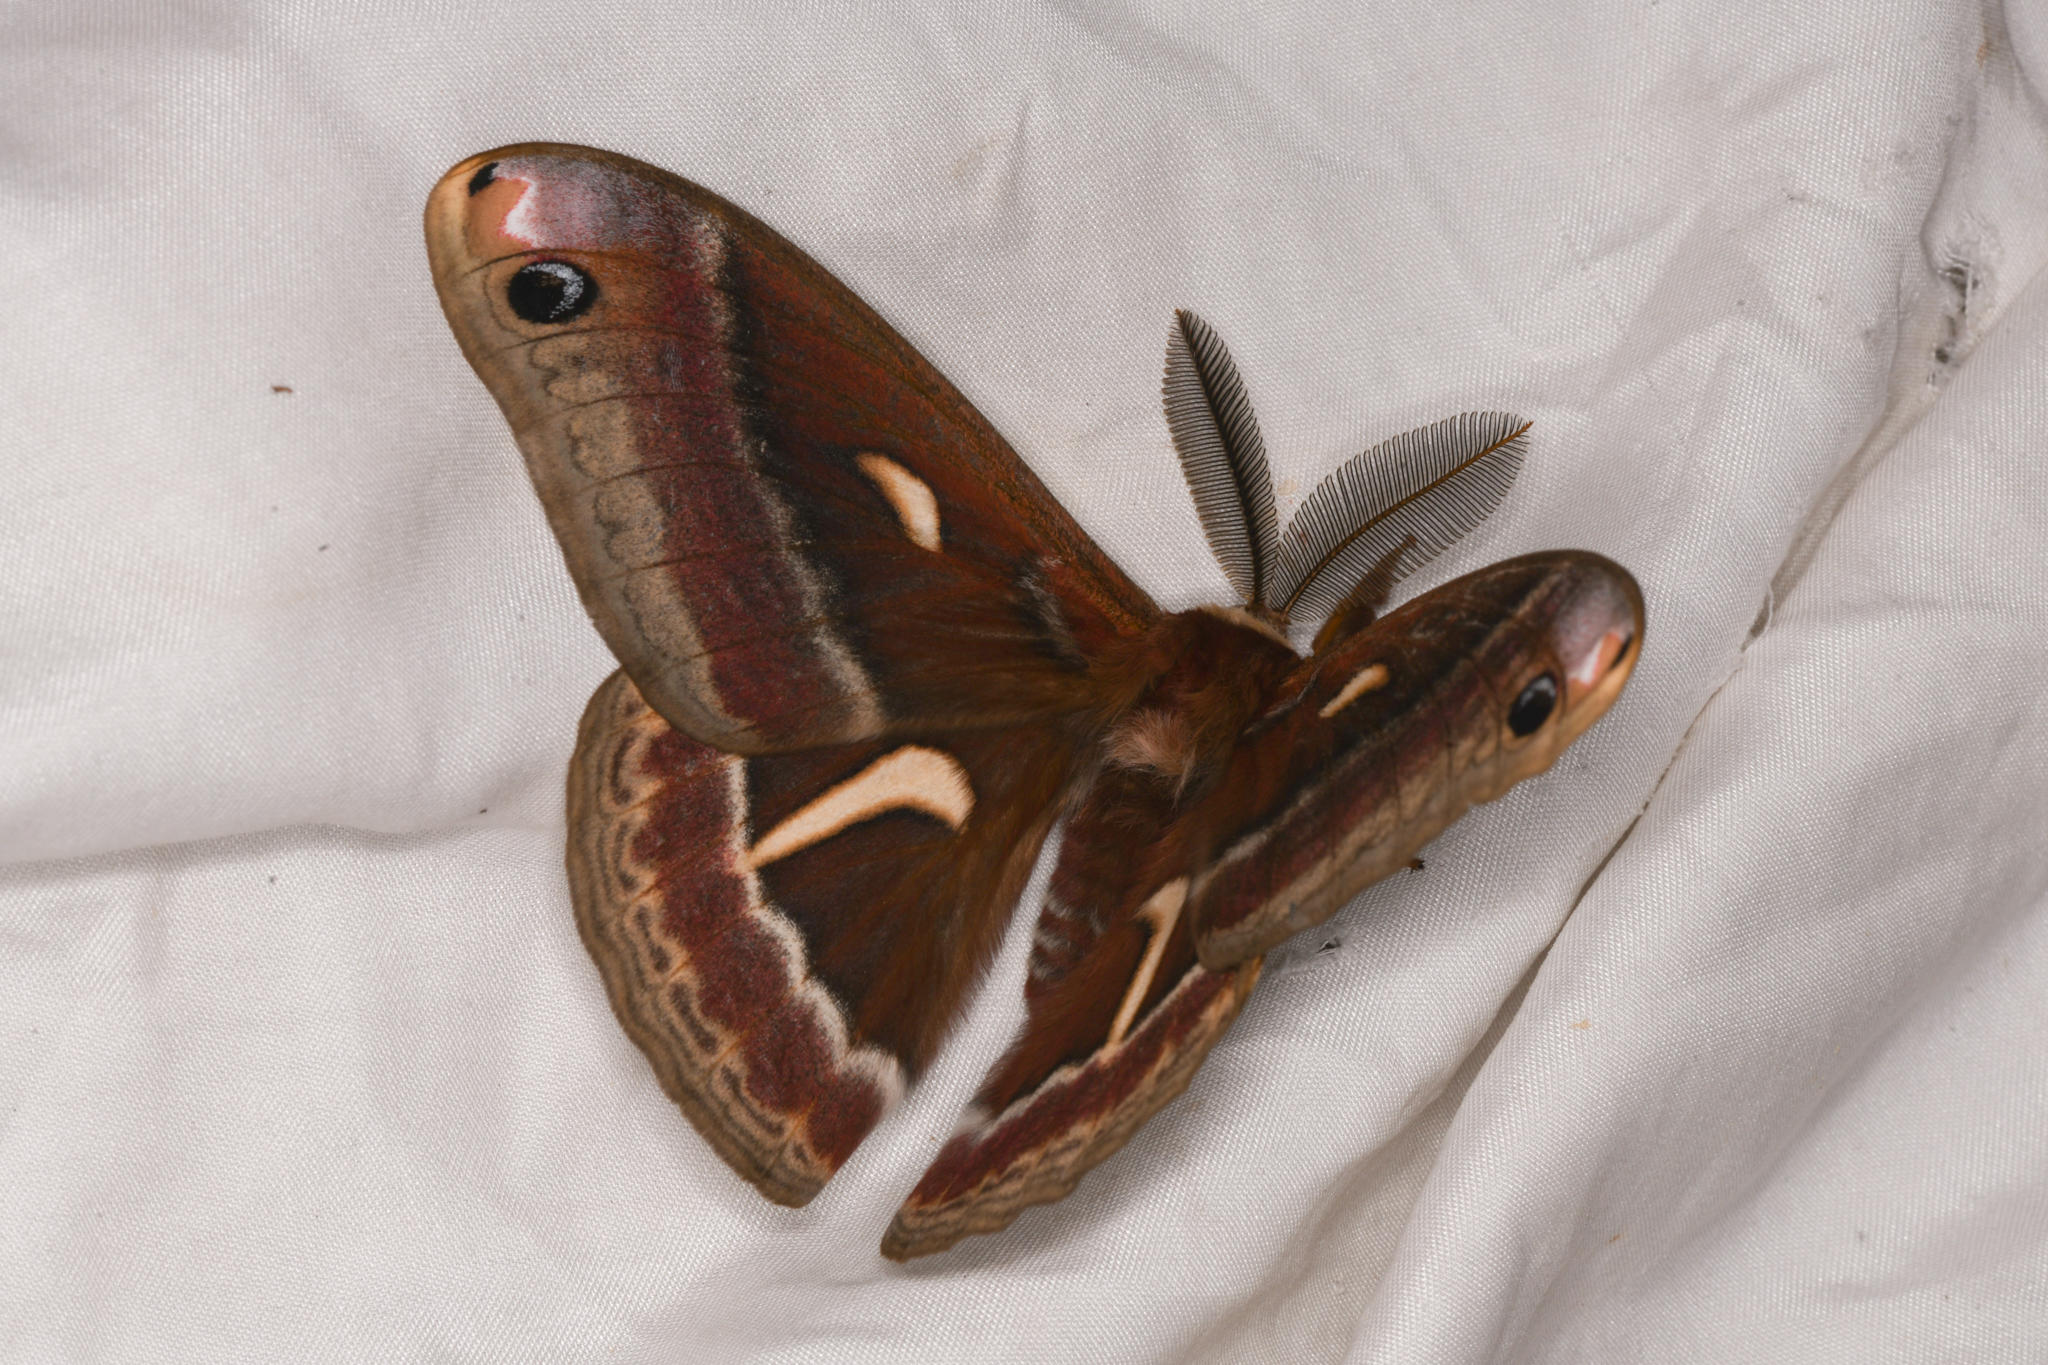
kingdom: Animalia
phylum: Arthropoda
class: Insecta
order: Lepidoptera
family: Saturniidae
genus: Hyalophora
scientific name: Hyalophora euryalus
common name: Ceanothus silkmoth
